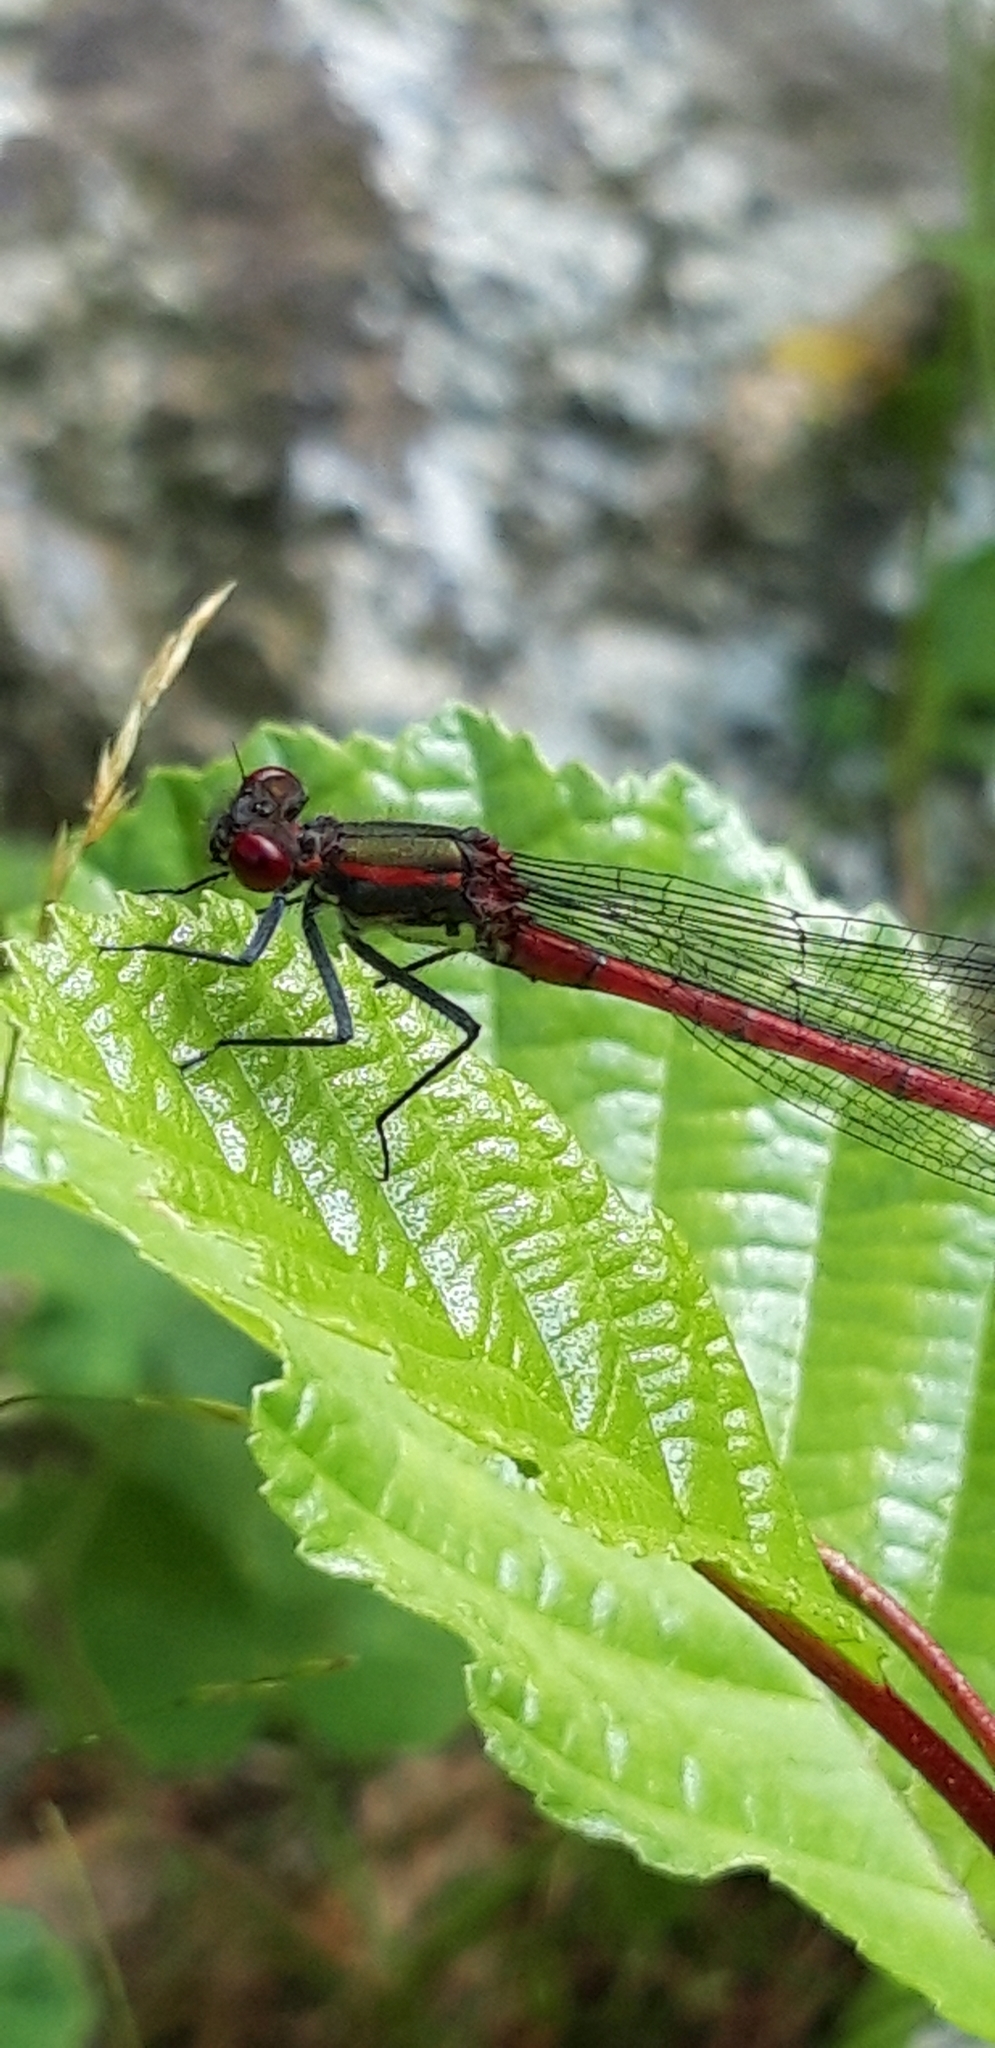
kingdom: Animalia
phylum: Arthropoda
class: Insecta
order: Odonata
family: Coenagrionidae
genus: Pyrrhosoma
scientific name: Pyrrhosoma nymphula
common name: Large red damsel
